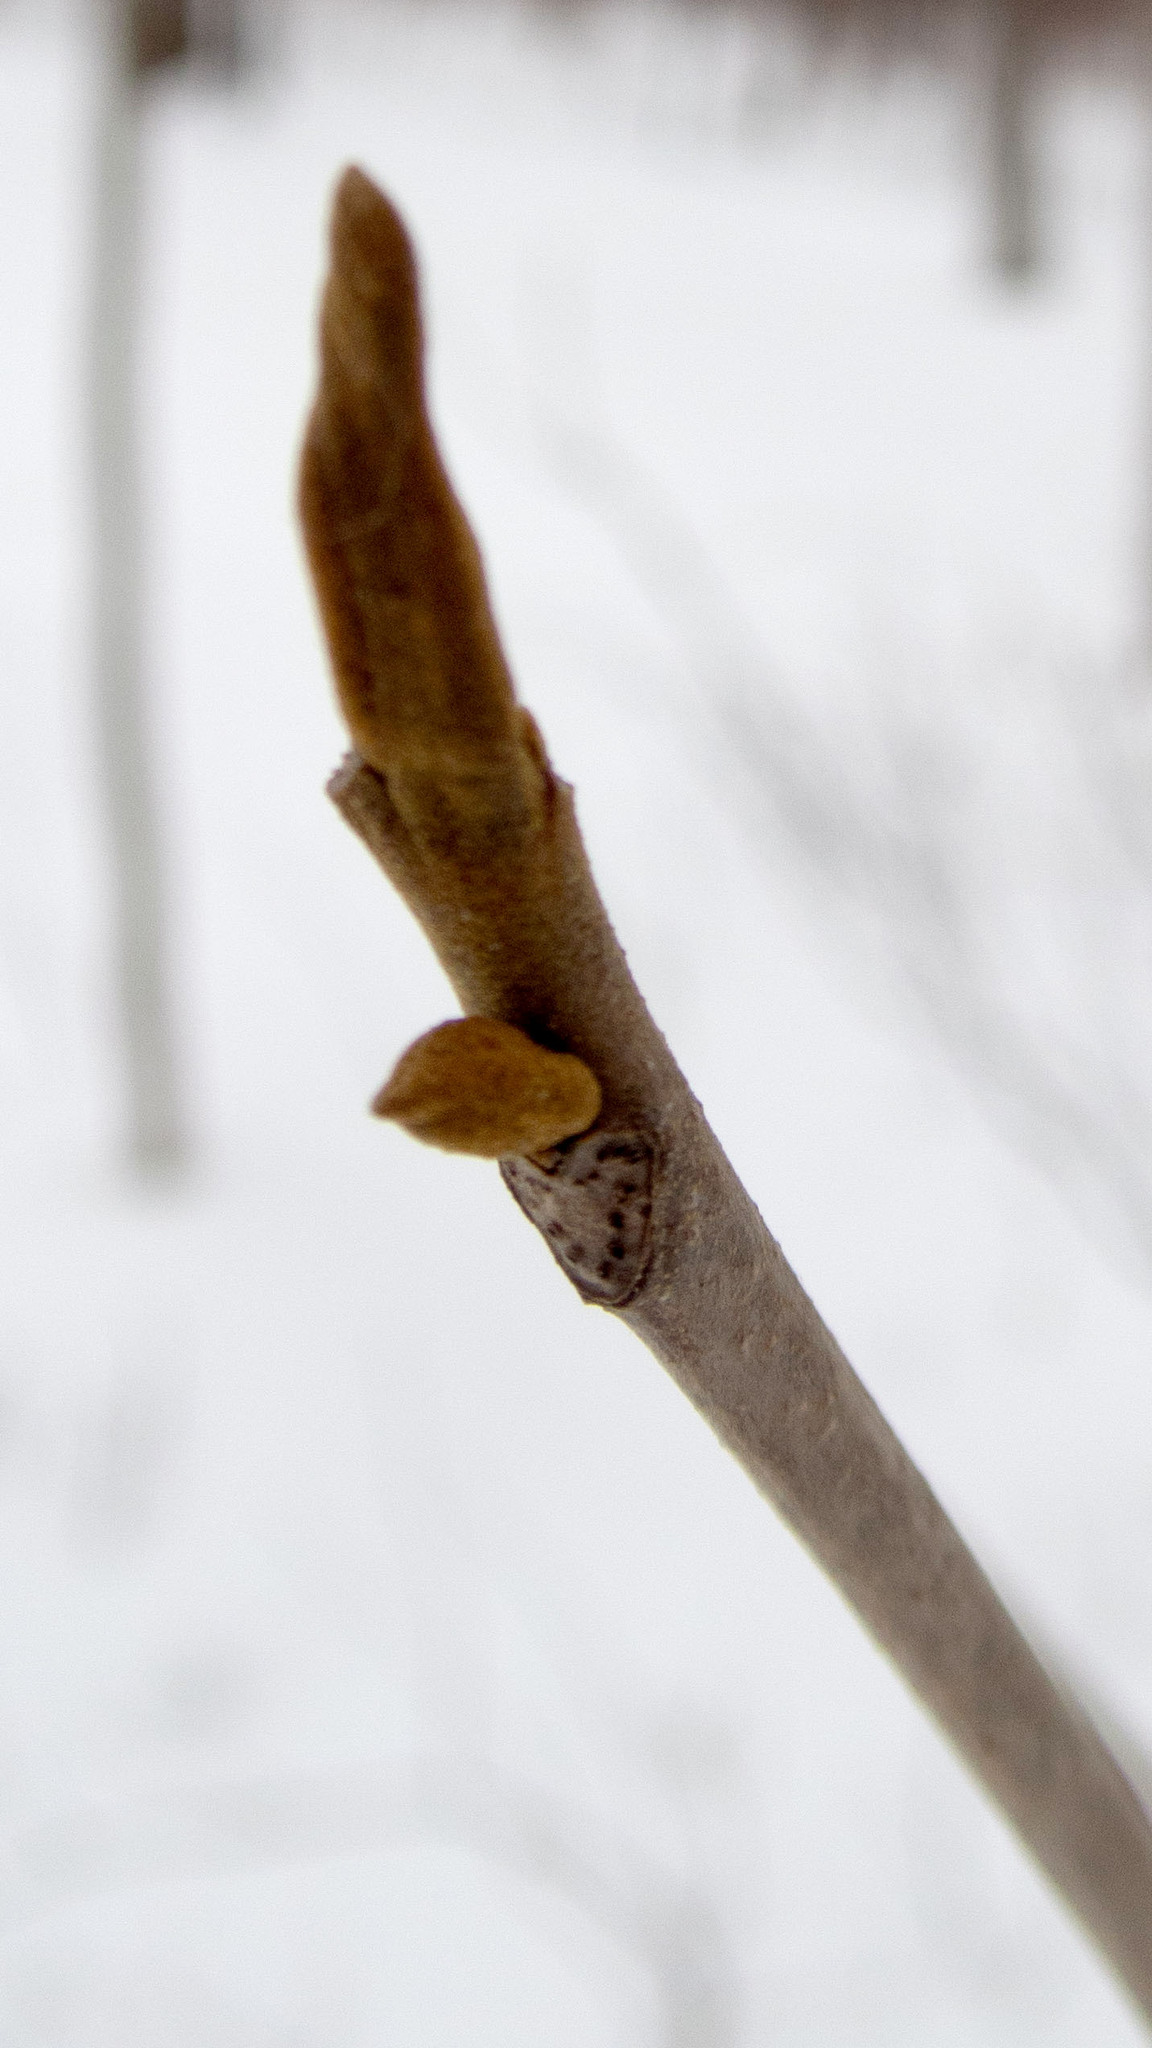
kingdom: Plantae
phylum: Tracheophyta
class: Magnoliopsida
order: Fagales
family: Juglandaceae
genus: Carya
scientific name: Carya cordiformis
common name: Bitternut hickory
